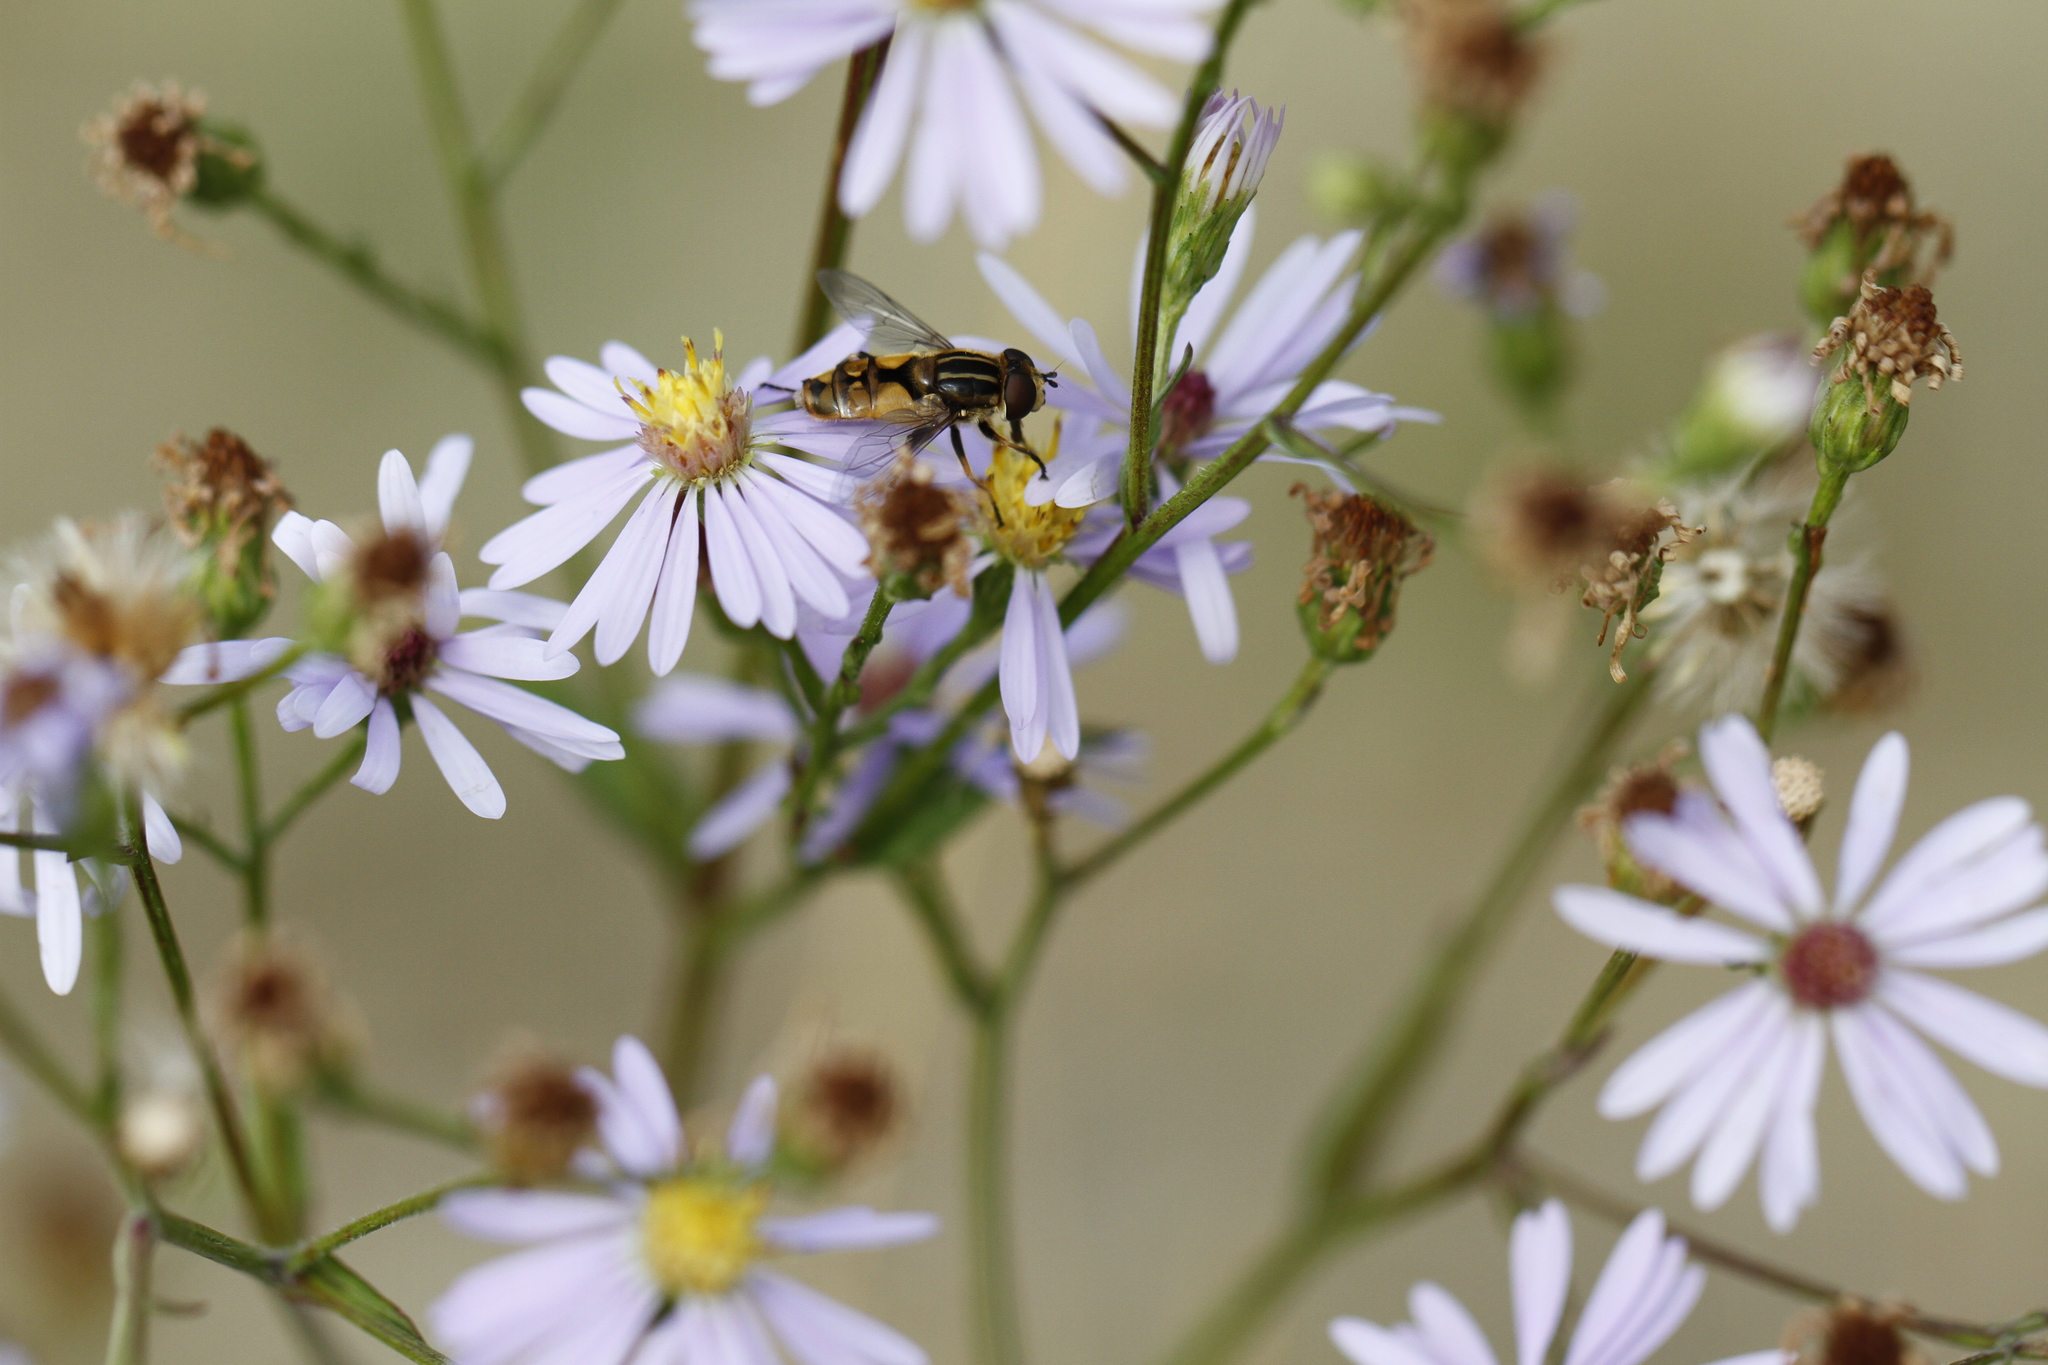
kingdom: Animalia
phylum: Arthropoda
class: Insecta
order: Diptera
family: Syrphidae
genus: Helophilus
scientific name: Helophilus hybridus
